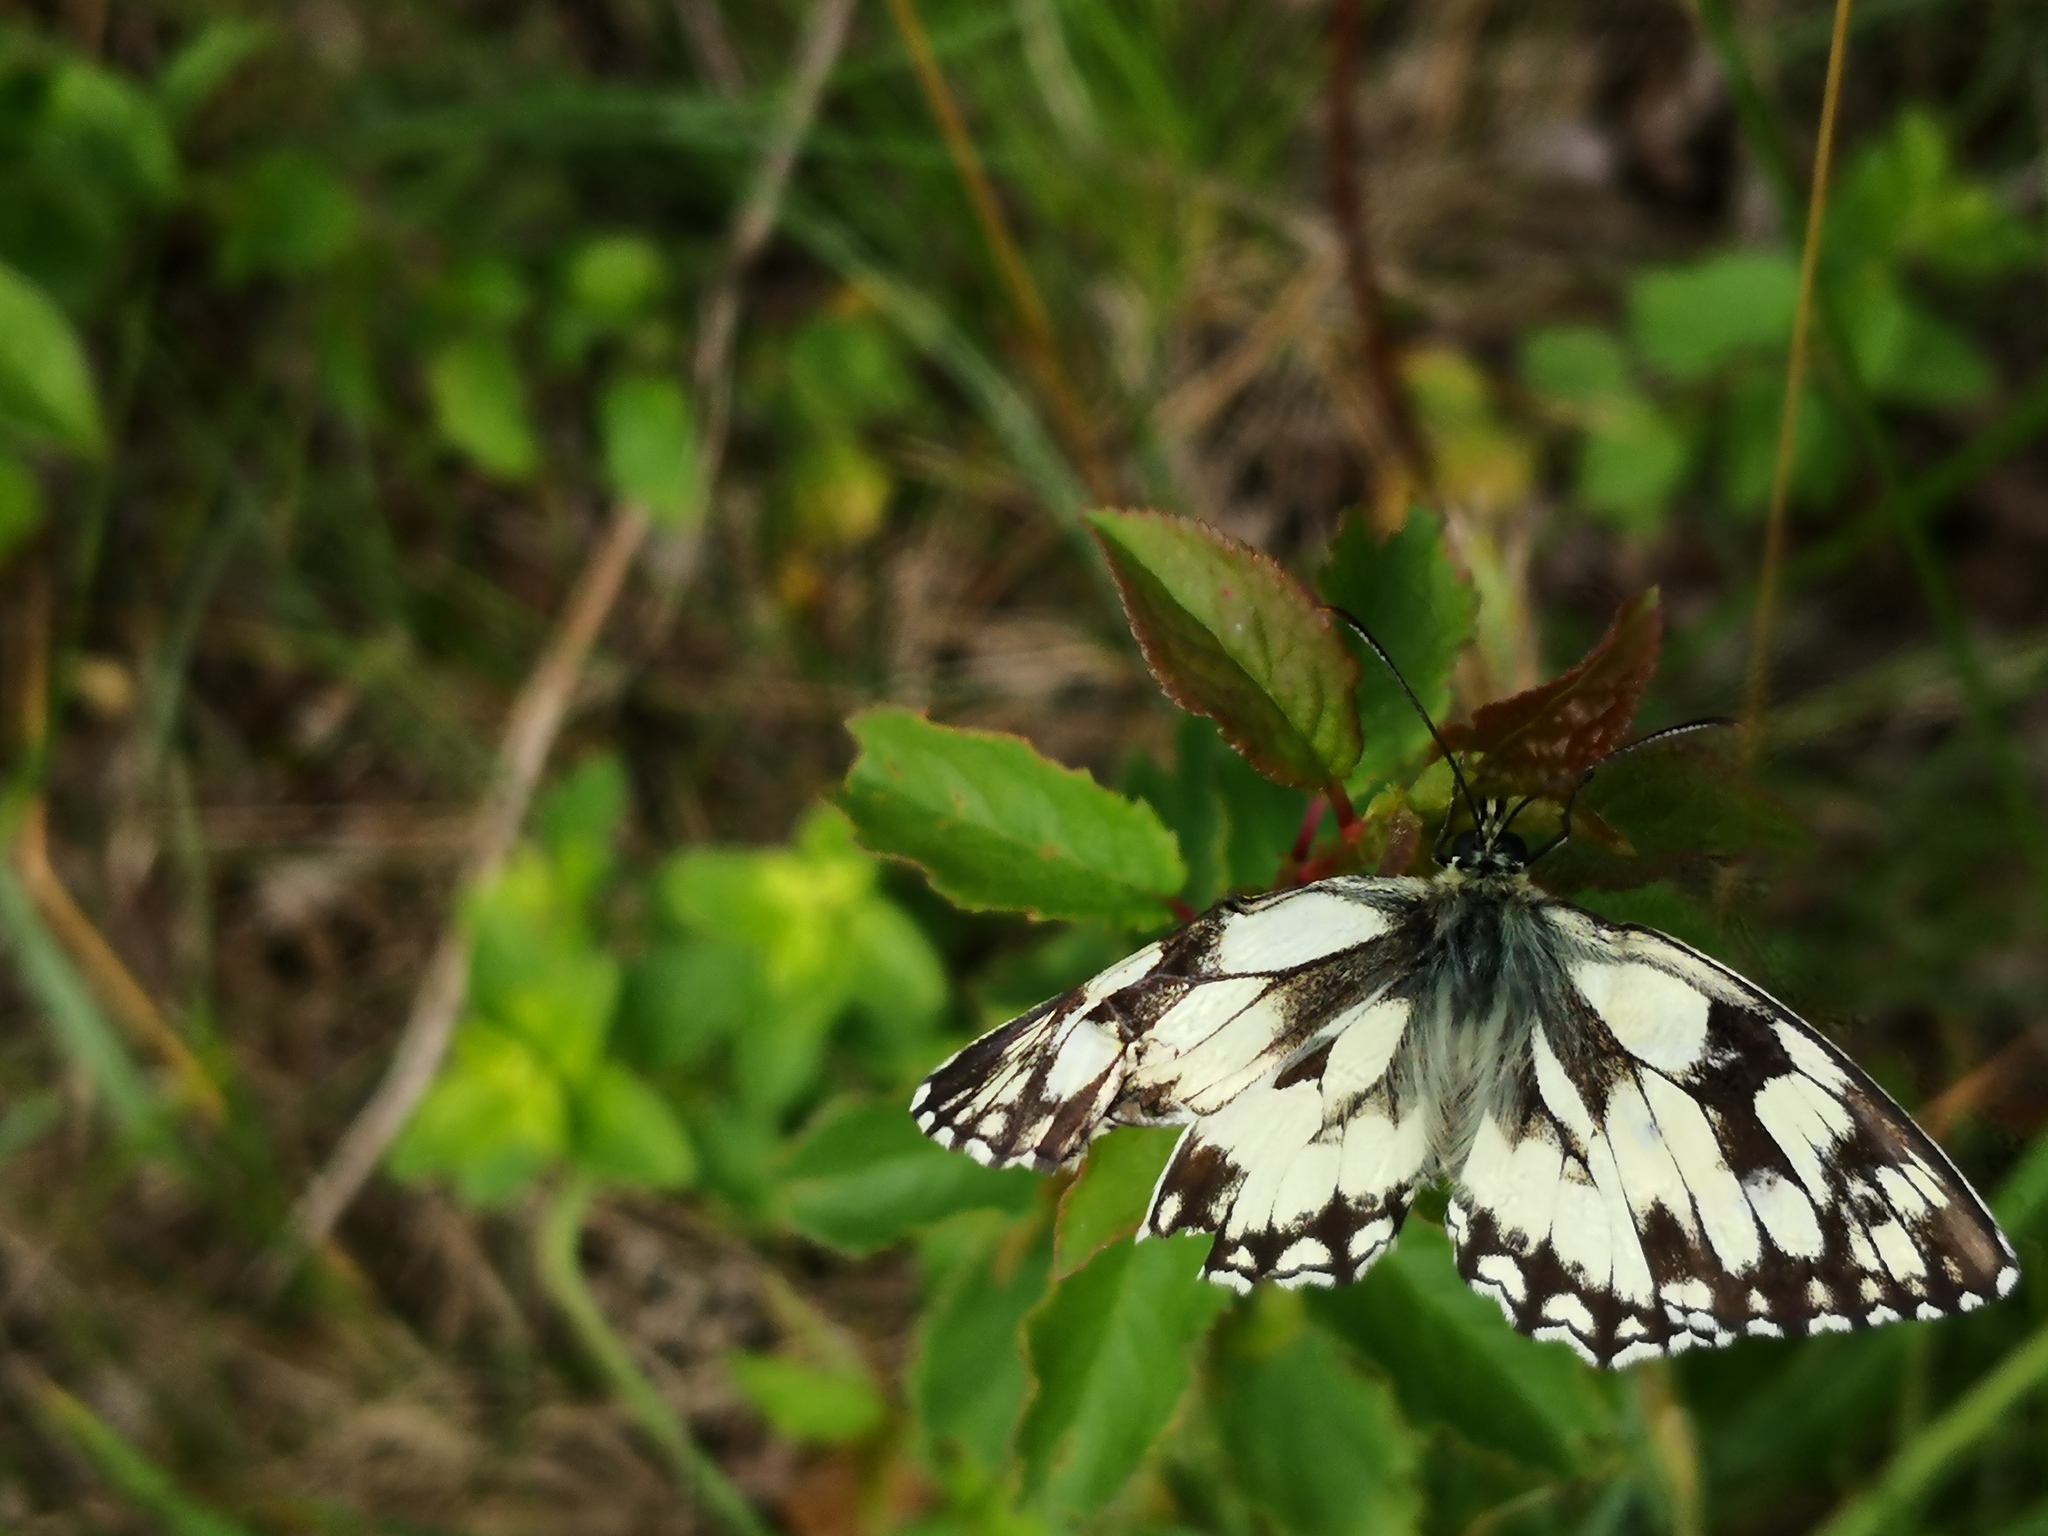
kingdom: Animalia
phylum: Arthropoda
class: Insecta
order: Lepidoptera
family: Nymphalidae
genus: Melanargia
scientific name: Melanargia galathea
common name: Marbled white
